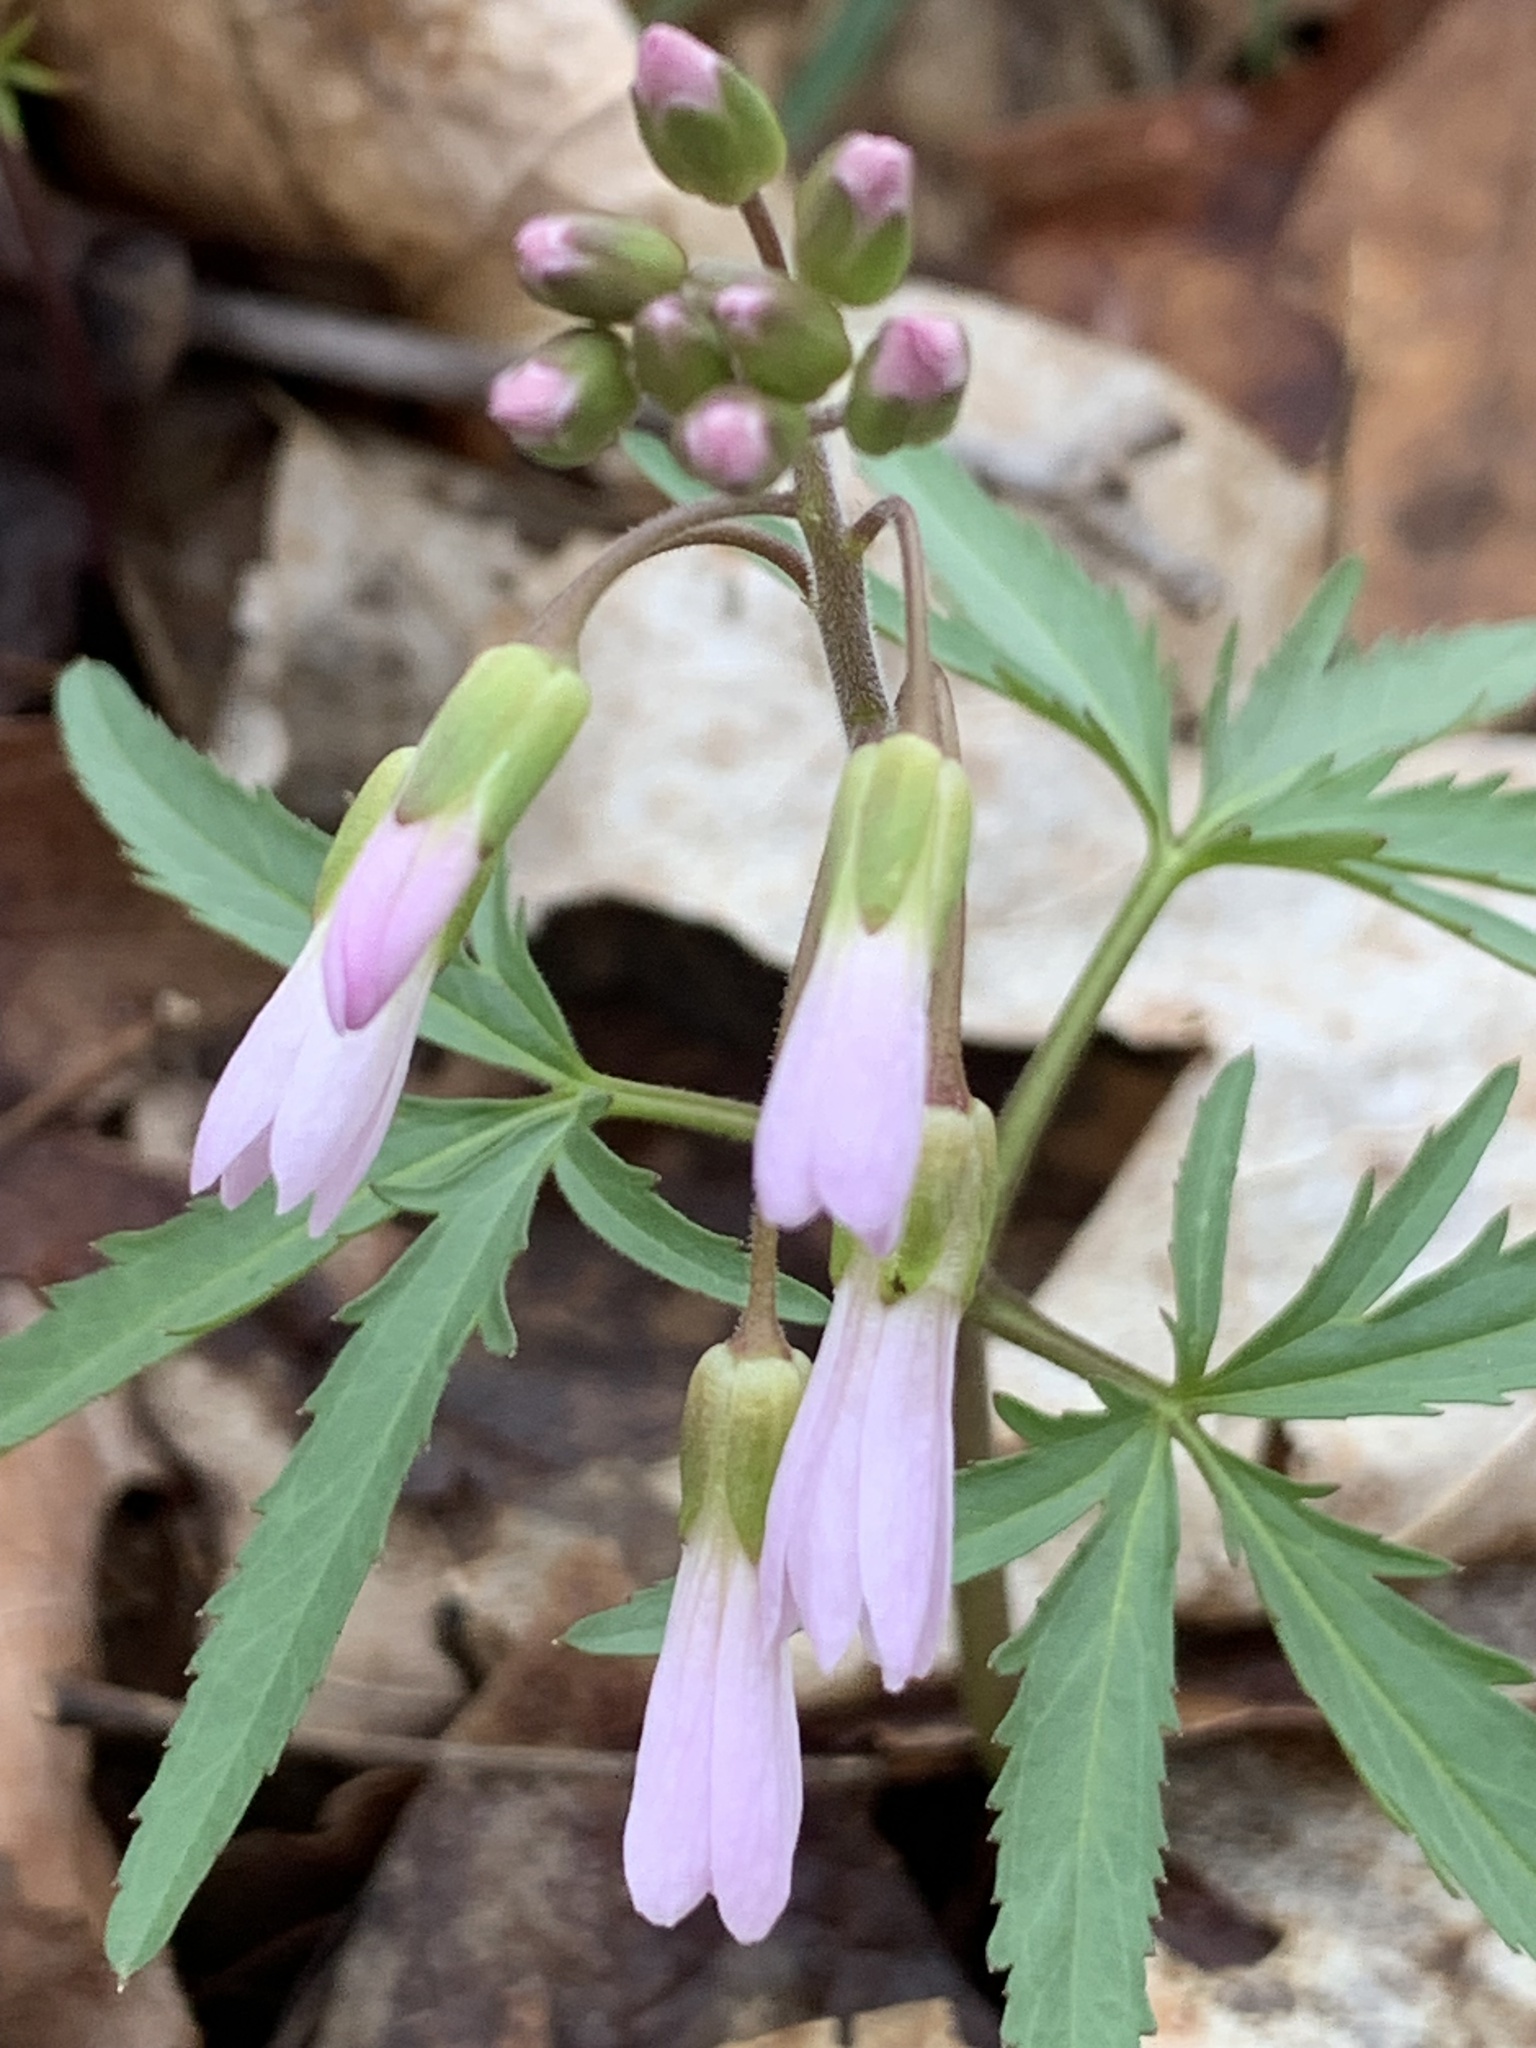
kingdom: Plantae
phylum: Tracheophyta
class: Magnoliopsida
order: Brassicales
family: Brassicaceae
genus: Cardamine
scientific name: Cardamine concatenata
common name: Cut-leaf toothcup
